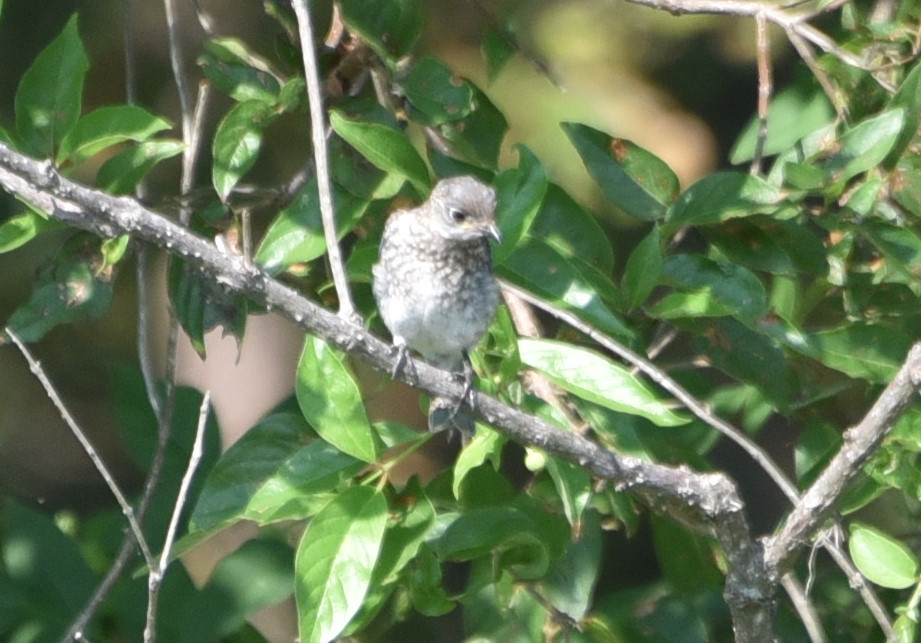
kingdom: Animalia
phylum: Chordata
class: Aves
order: Passeriformes
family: Turdidae
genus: Sialia
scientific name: Sialia sialis
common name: Eastern bluebird
